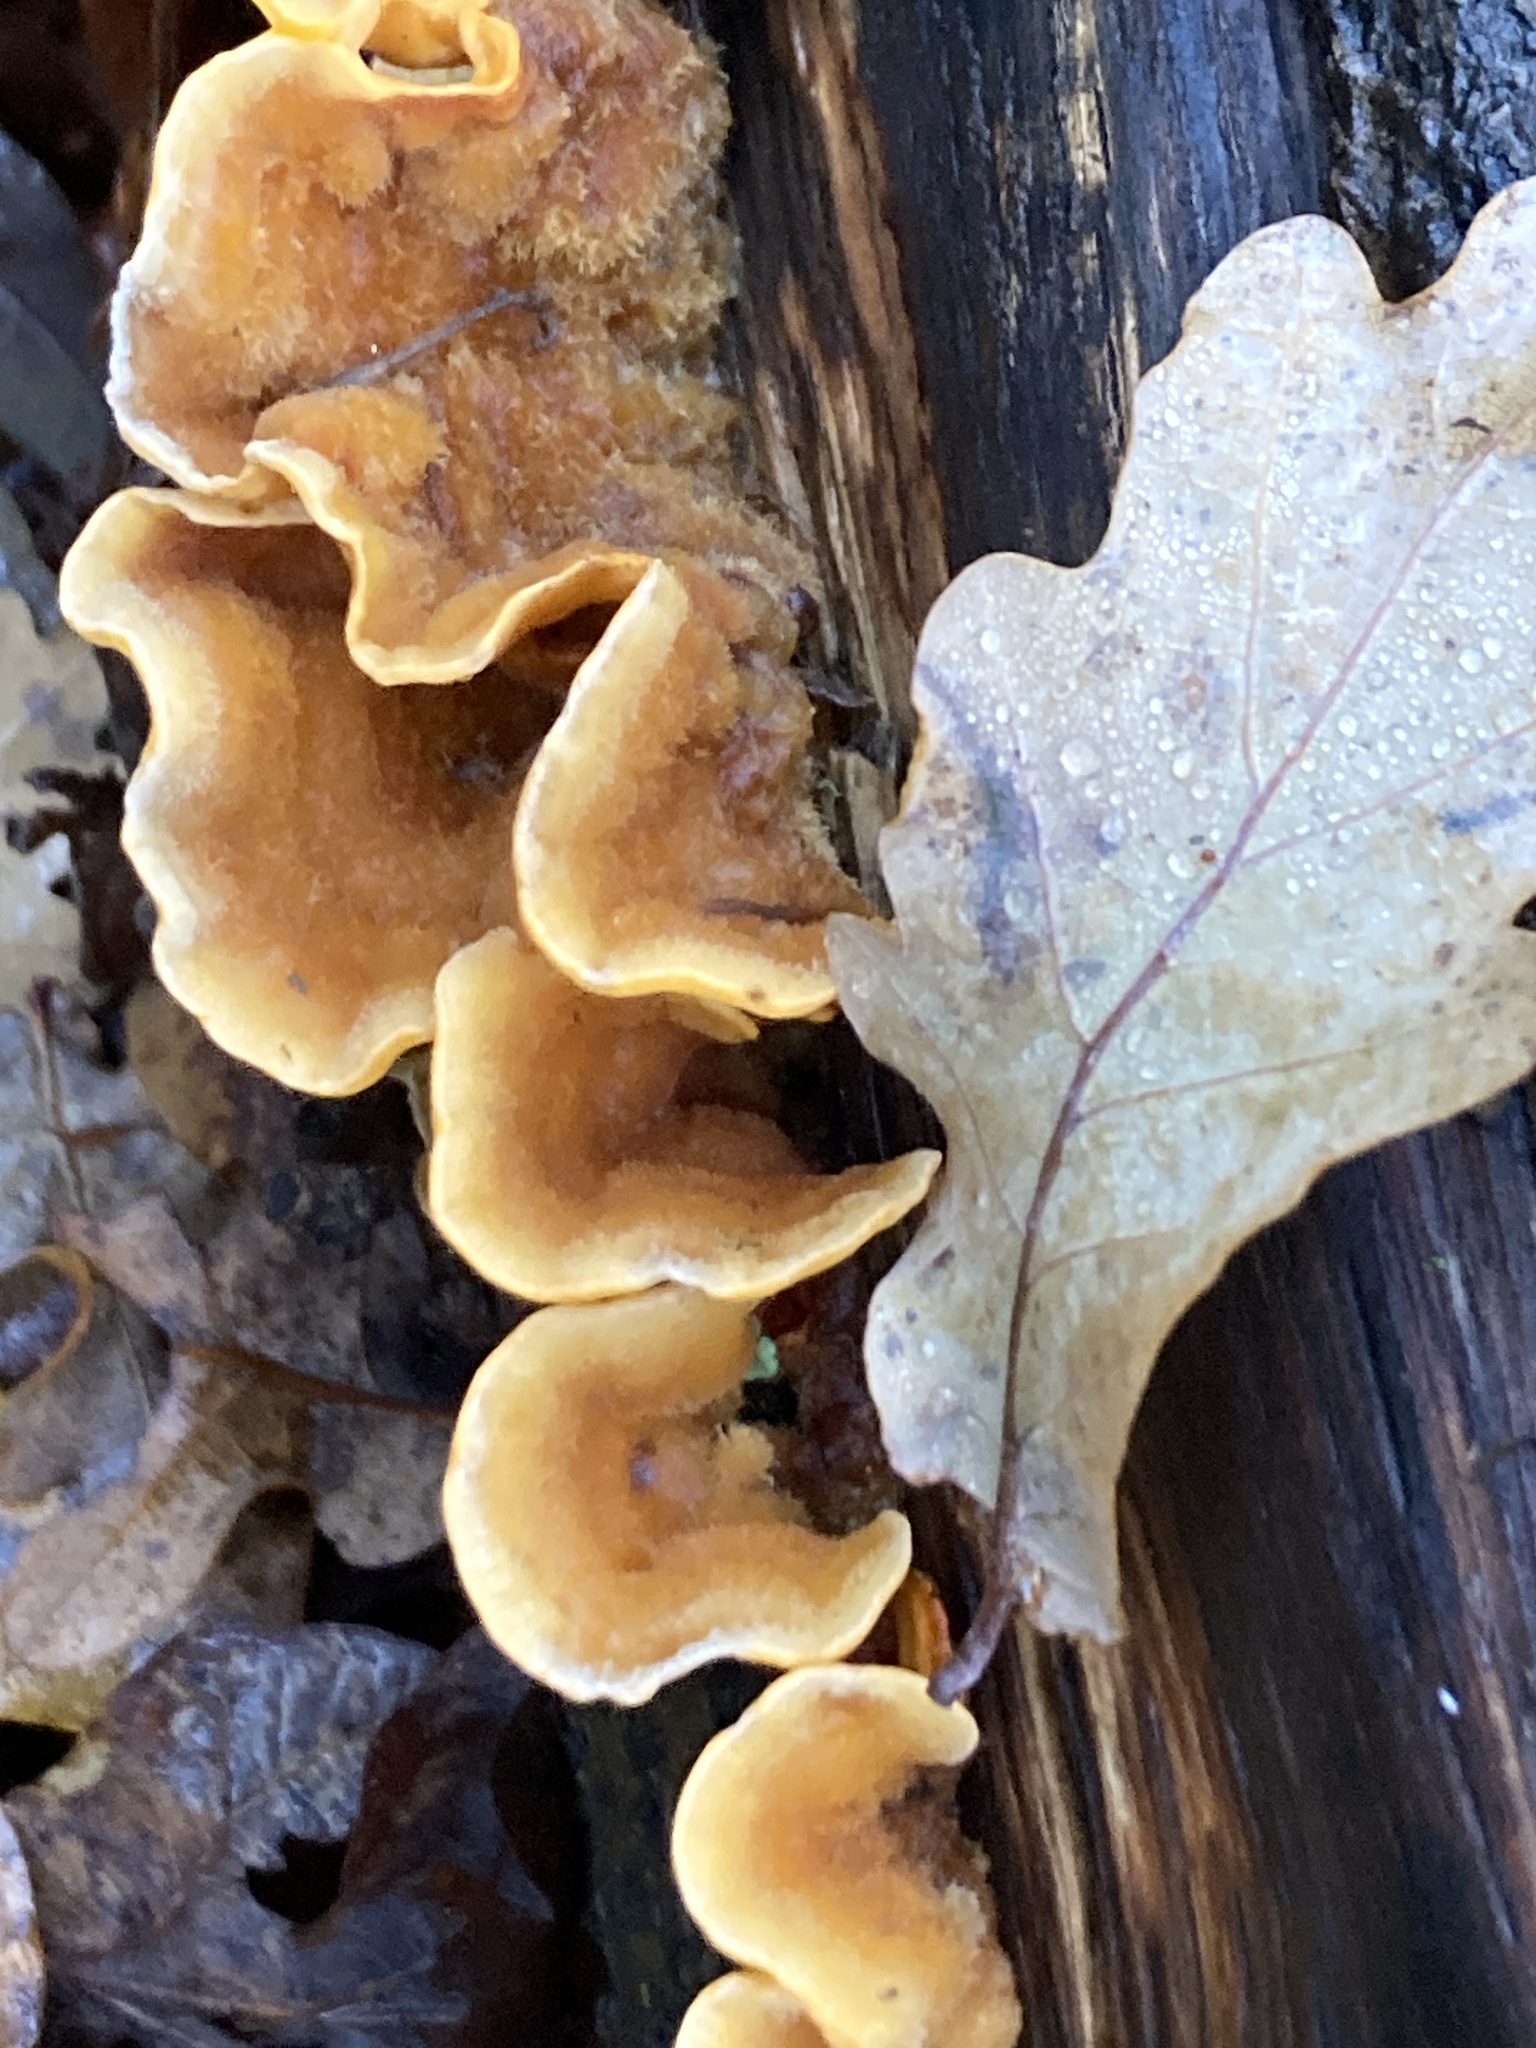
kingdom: Fungi
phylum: Basidiomycota
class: Agaricomycetes
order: Russulales
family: Stereaceae
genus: Stereum
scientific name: Stereum hirsutum
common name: Hairy curtain crust
